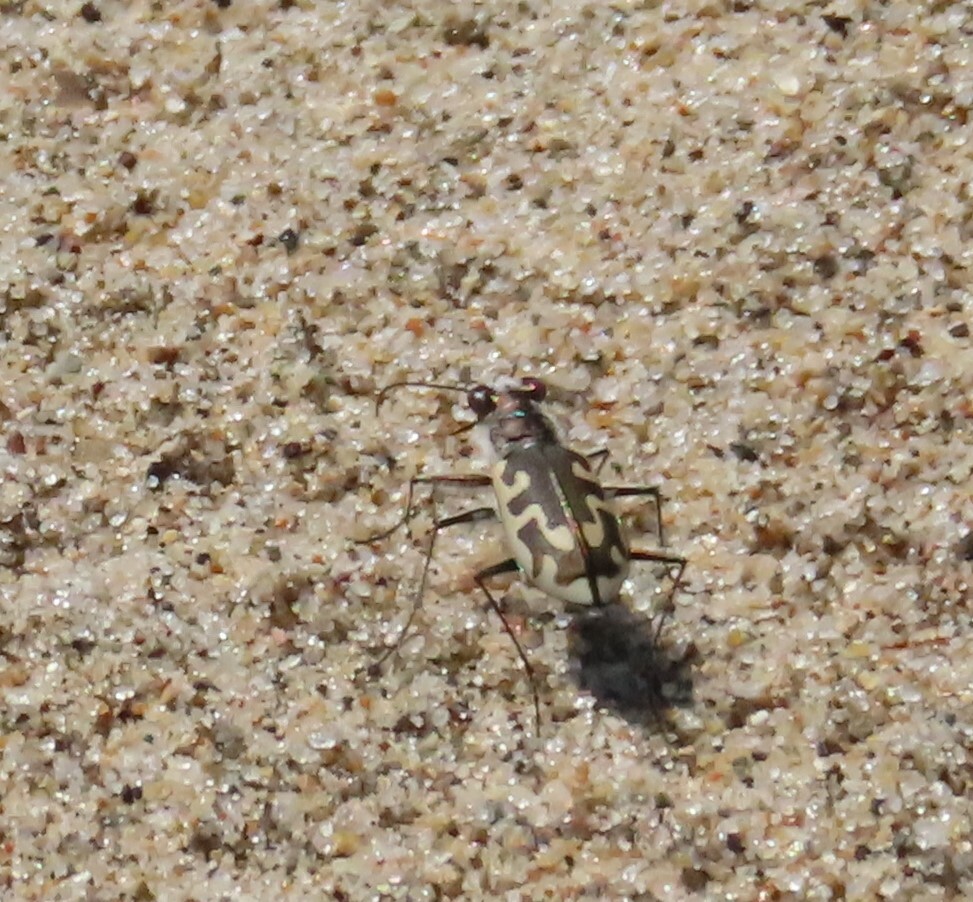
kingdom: Animalia
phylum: Arthropoda
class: Insecta
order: Coleoptera
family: Carabidae
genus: Cicindela
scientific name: Cicindela hirticollis
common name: Hairy-necked tiger beetle
